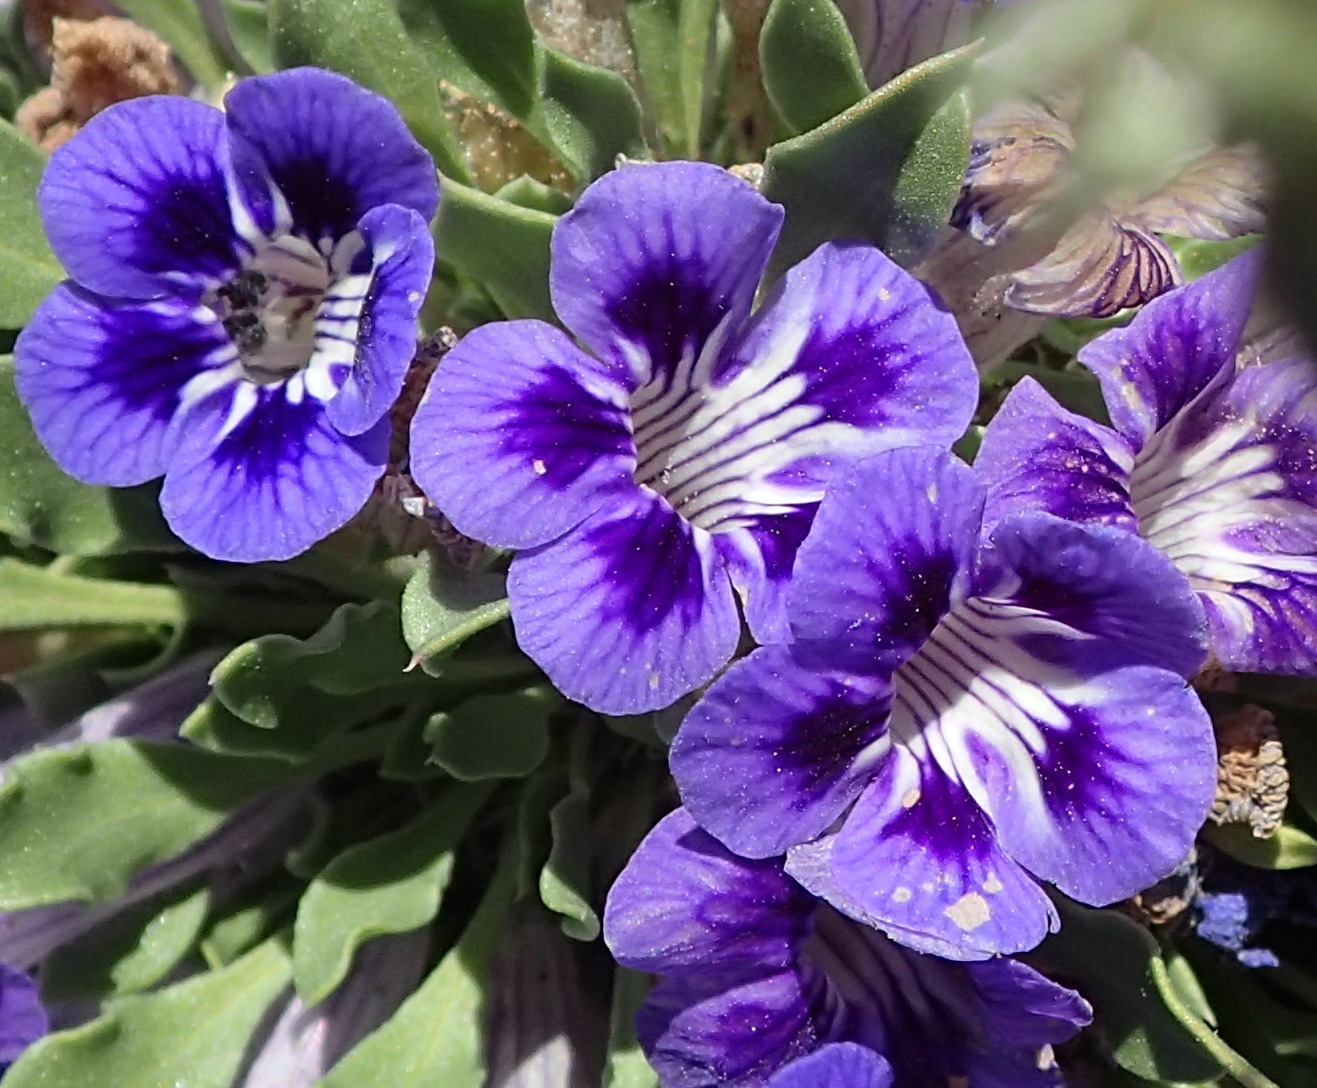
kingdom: Plantae
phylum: Tracheophyta
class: Magnoliopsida
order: Lamiales
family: Scrophulariaceae
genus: Aptosimum
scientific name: Aptosimum indivisum
